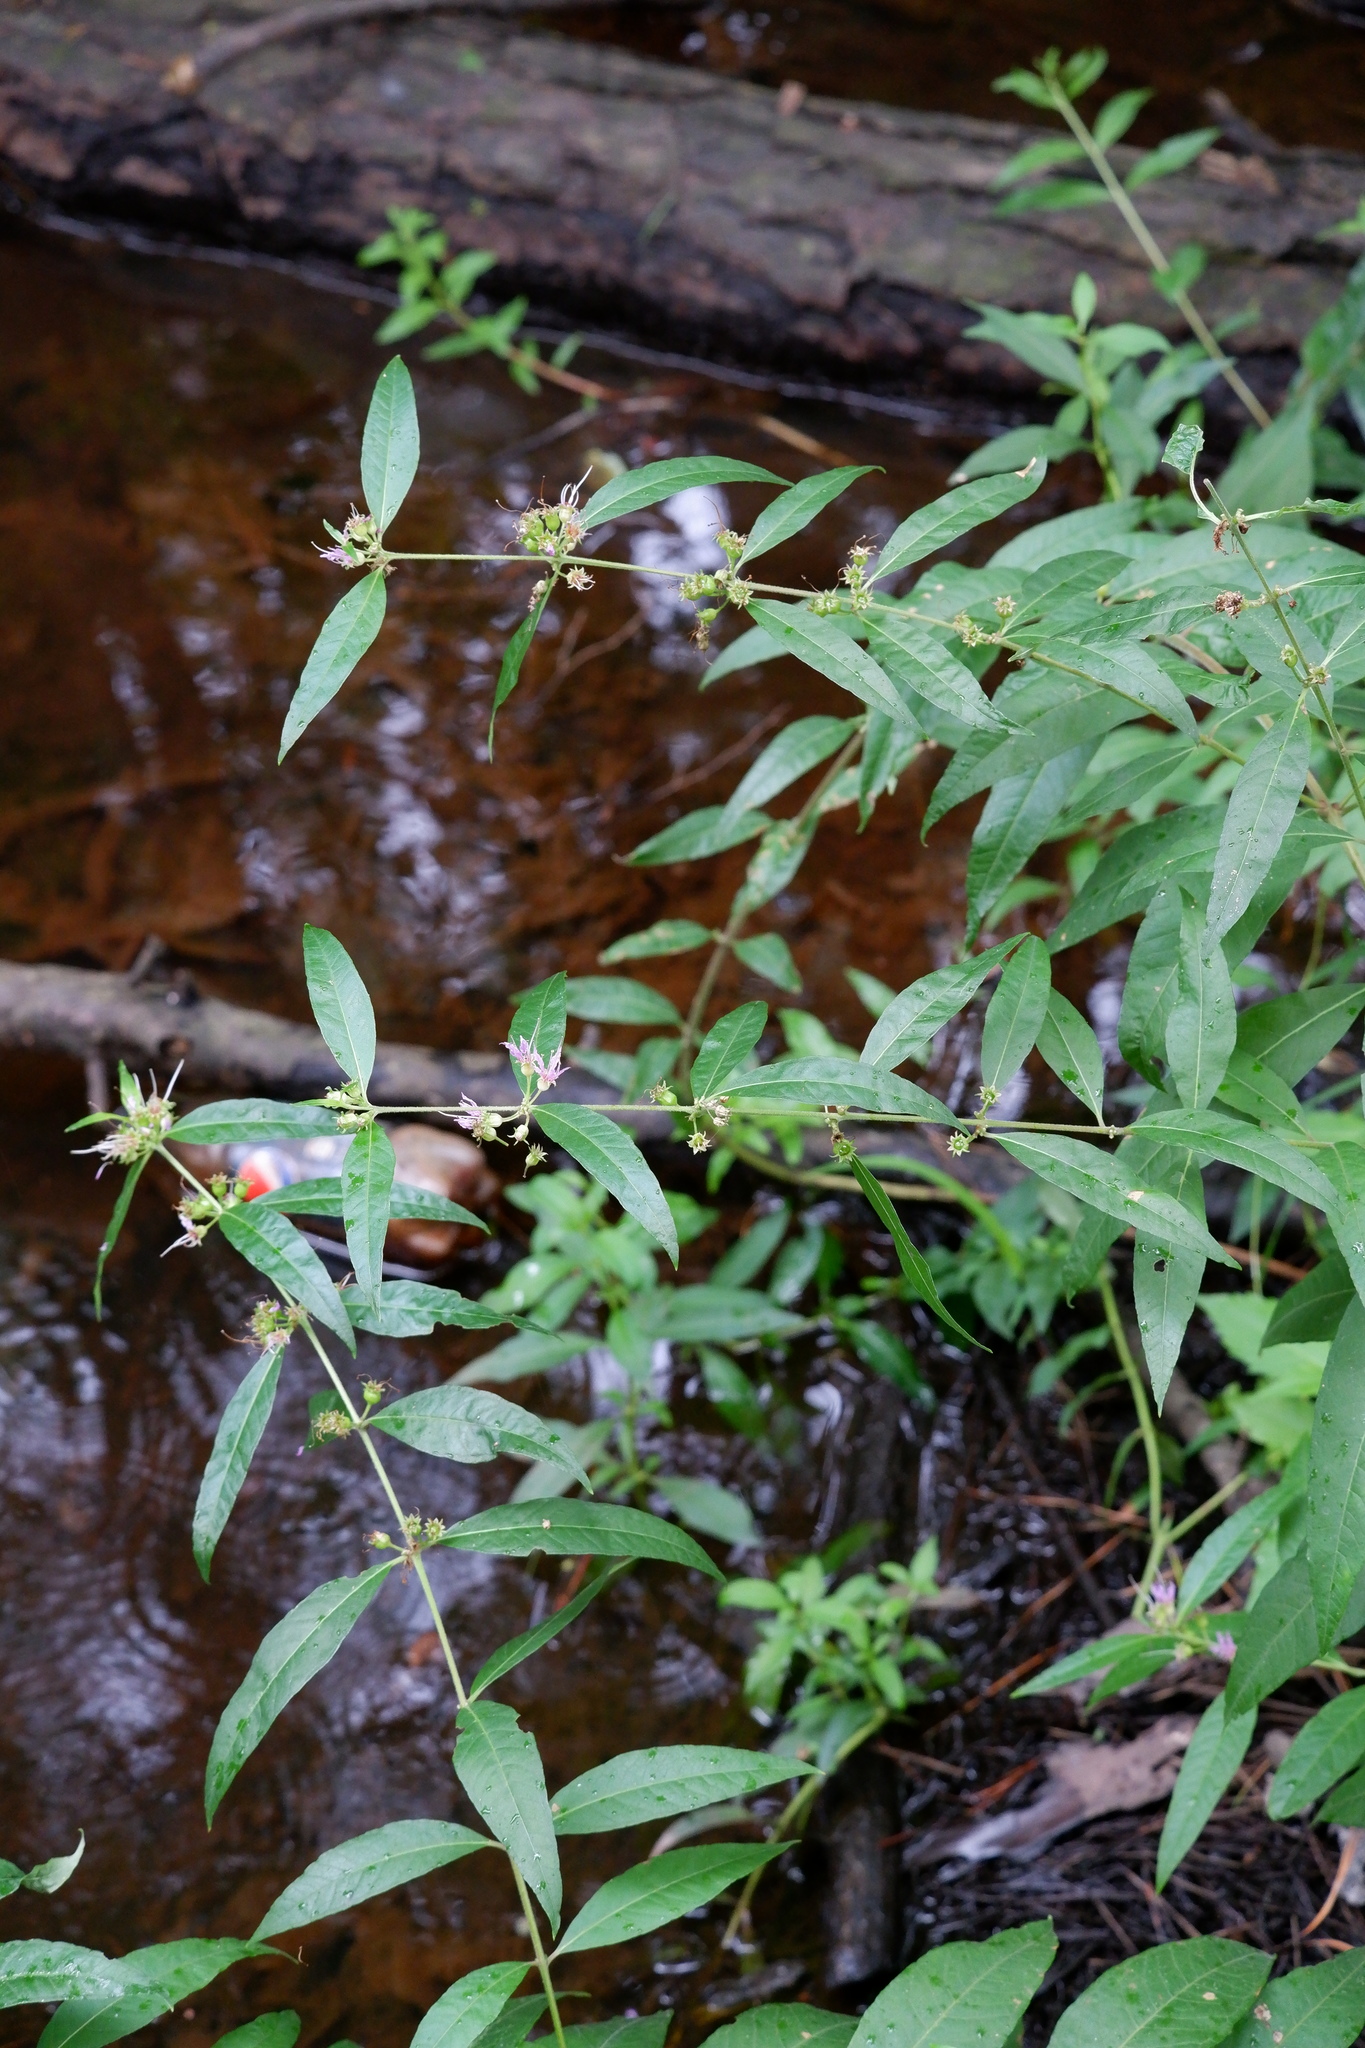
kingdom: Plantae
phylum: Tracheophyta
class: Magnoliopsida
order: Myrtales
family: Lythraceae
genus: Decodon
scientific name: Decodon verticillatus
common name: Hairy swamp loosestrife
